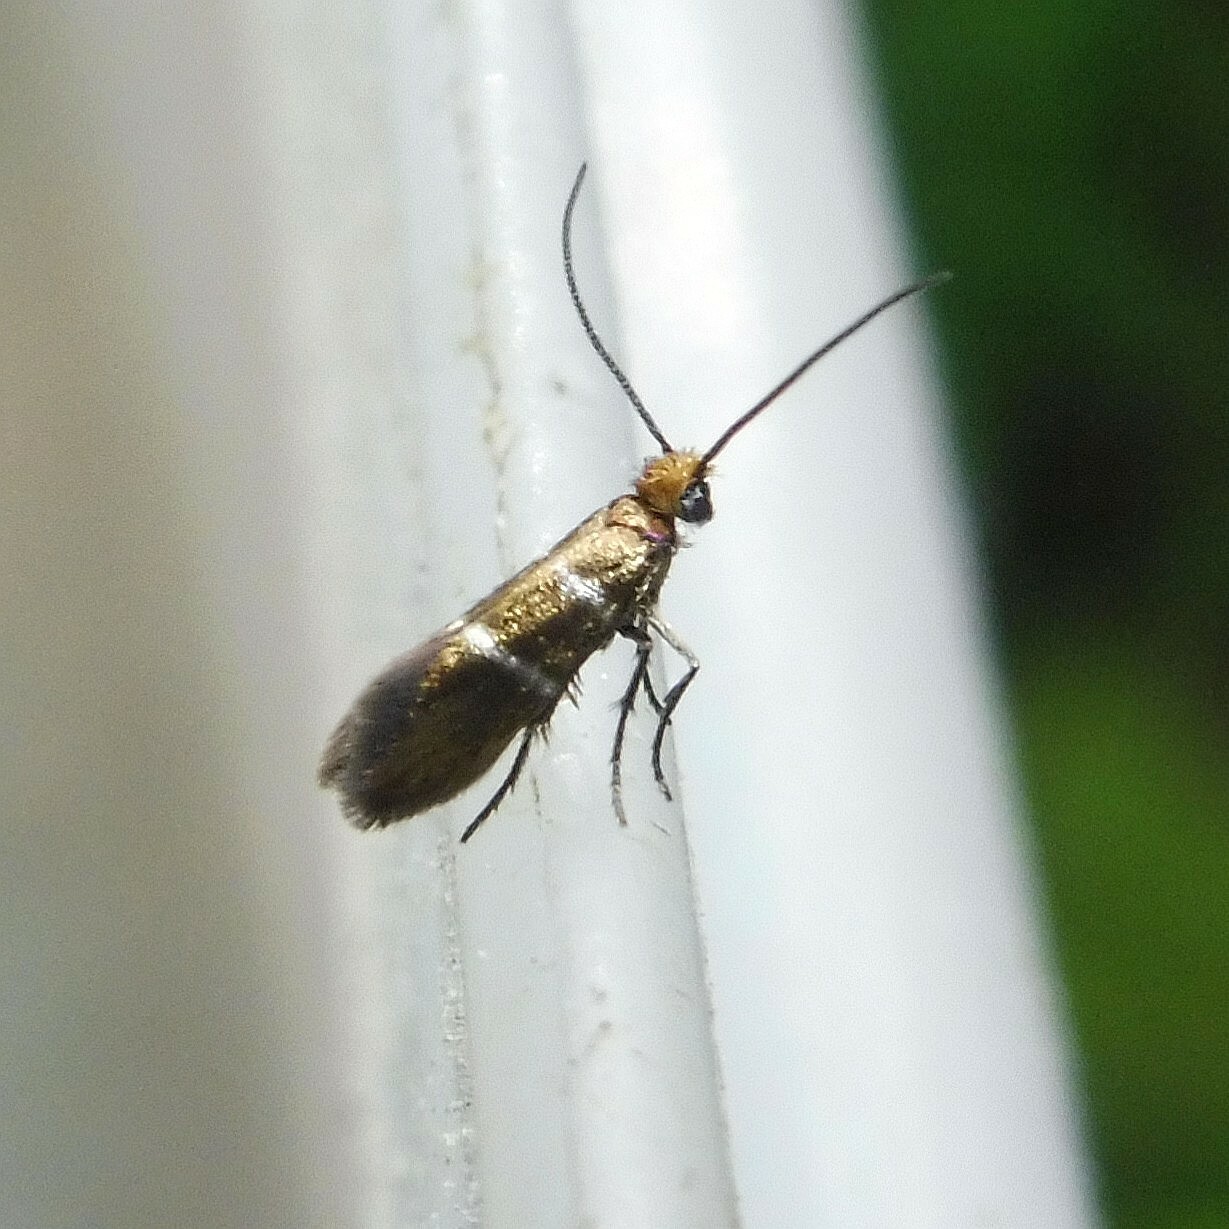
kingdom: Animalia
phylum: Arthropoda
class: Insecta
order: Lepidoptera
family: Micropterigidae
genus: Micropterix
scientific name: Micropterix aruncella
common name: White-barred gold
